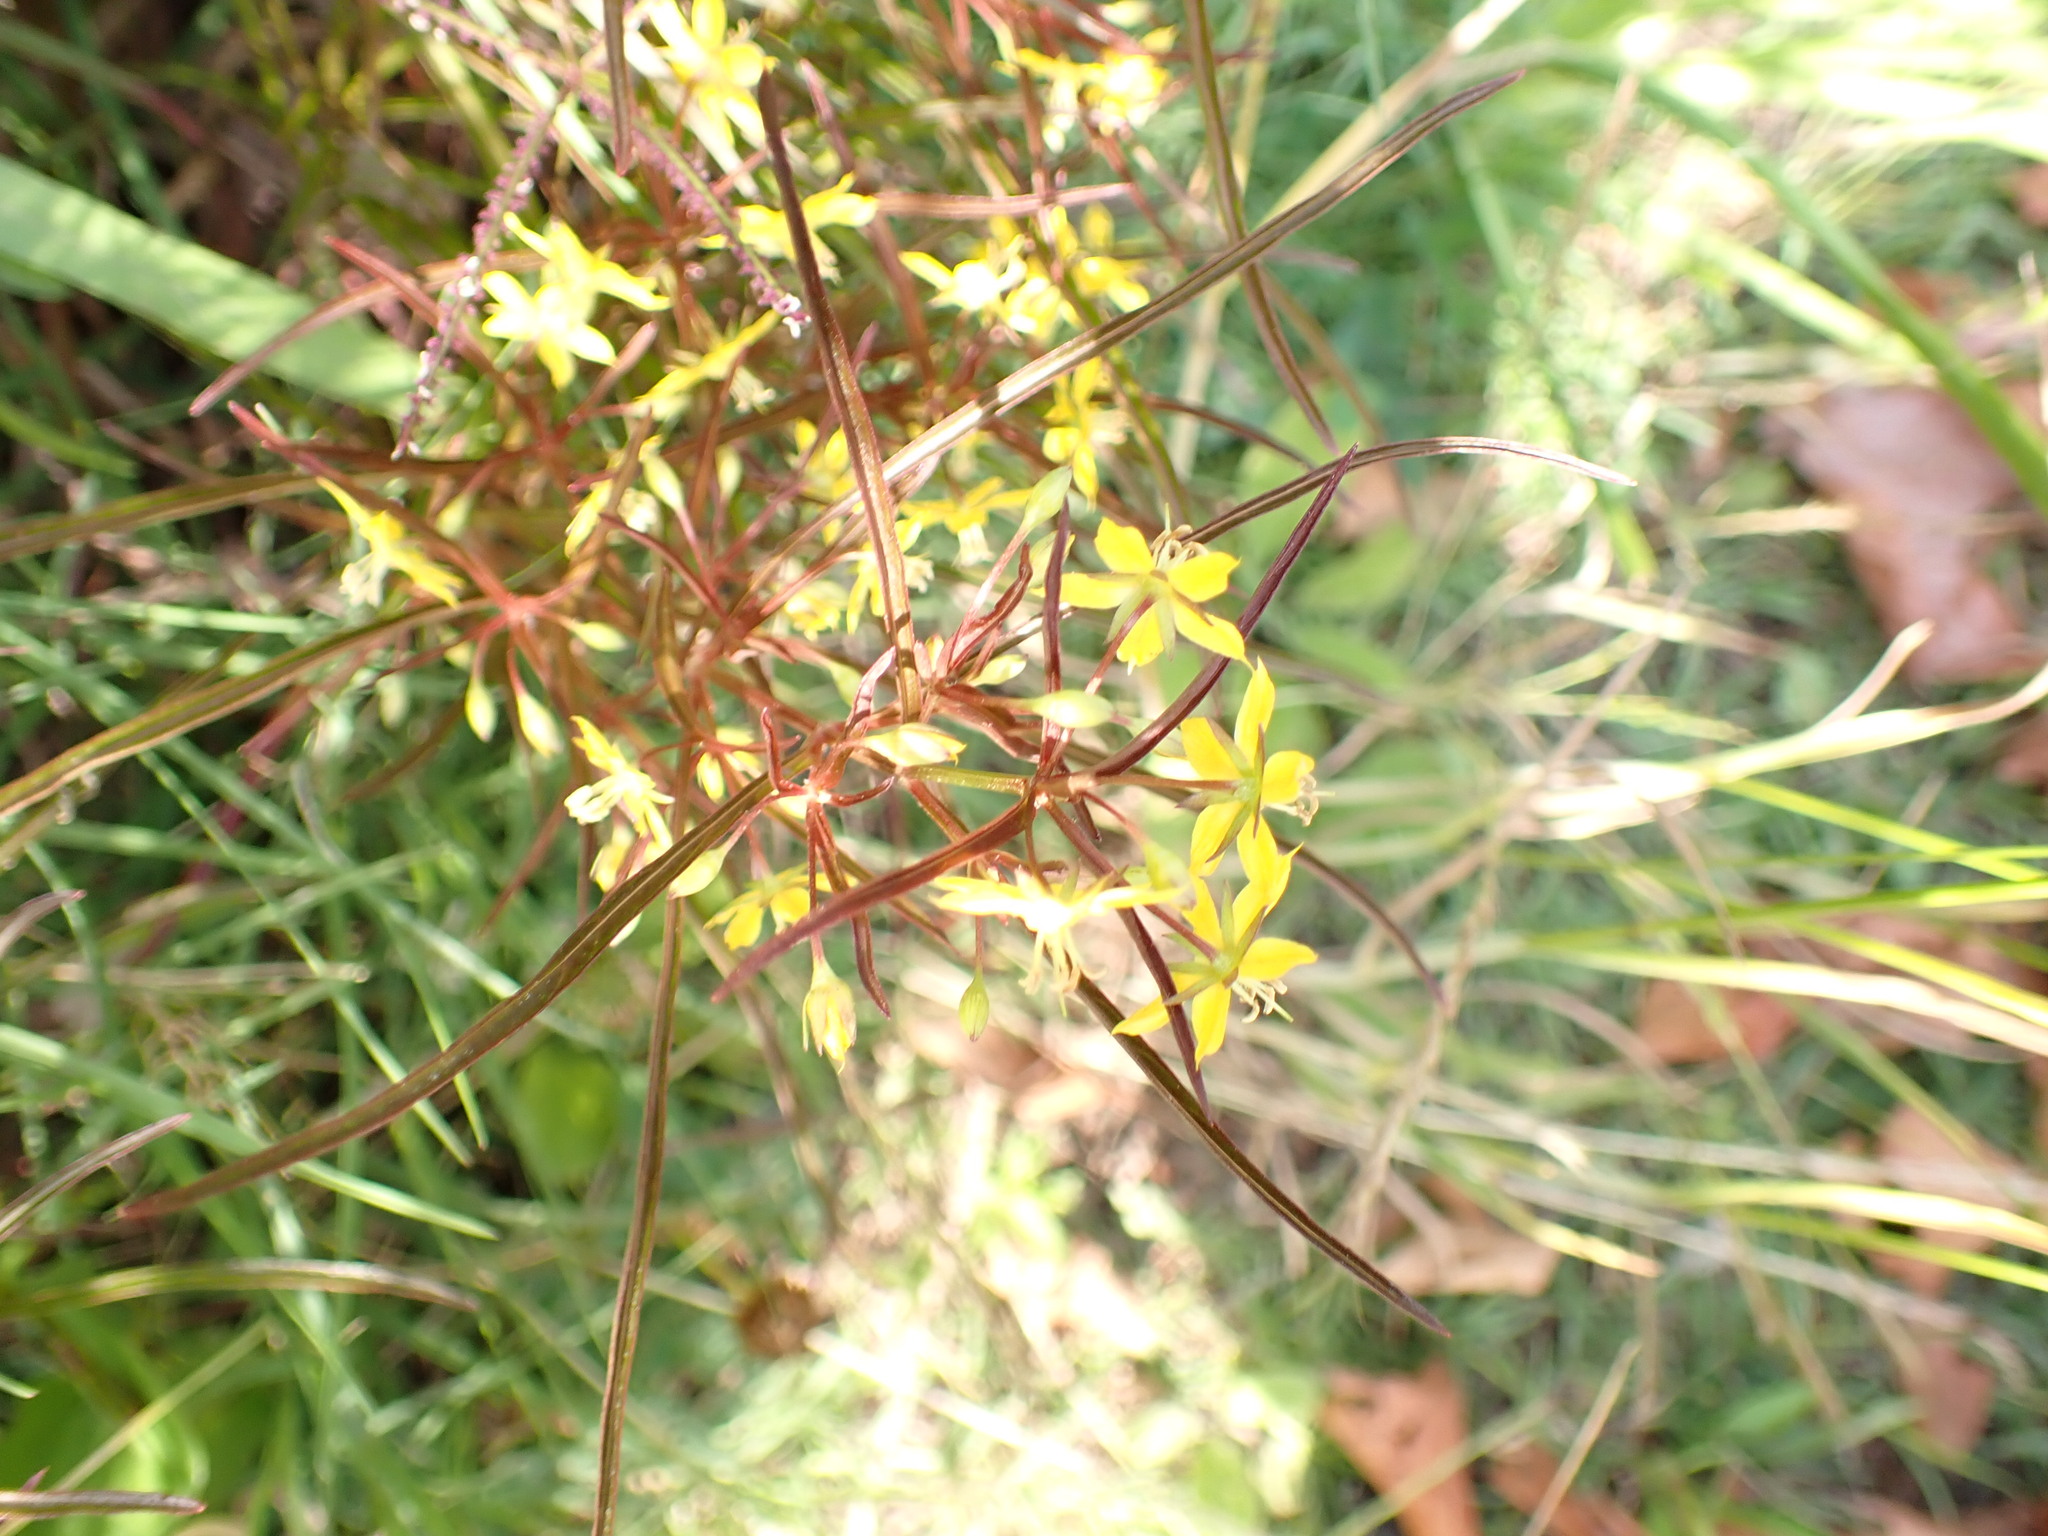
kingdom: Plantae
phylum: Tracheophyta
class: Magnoliopsida
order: Ericales
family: Primulaceae
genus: Lysimachia
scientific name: Lysimachia terrestris
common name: Lake loosestrife
